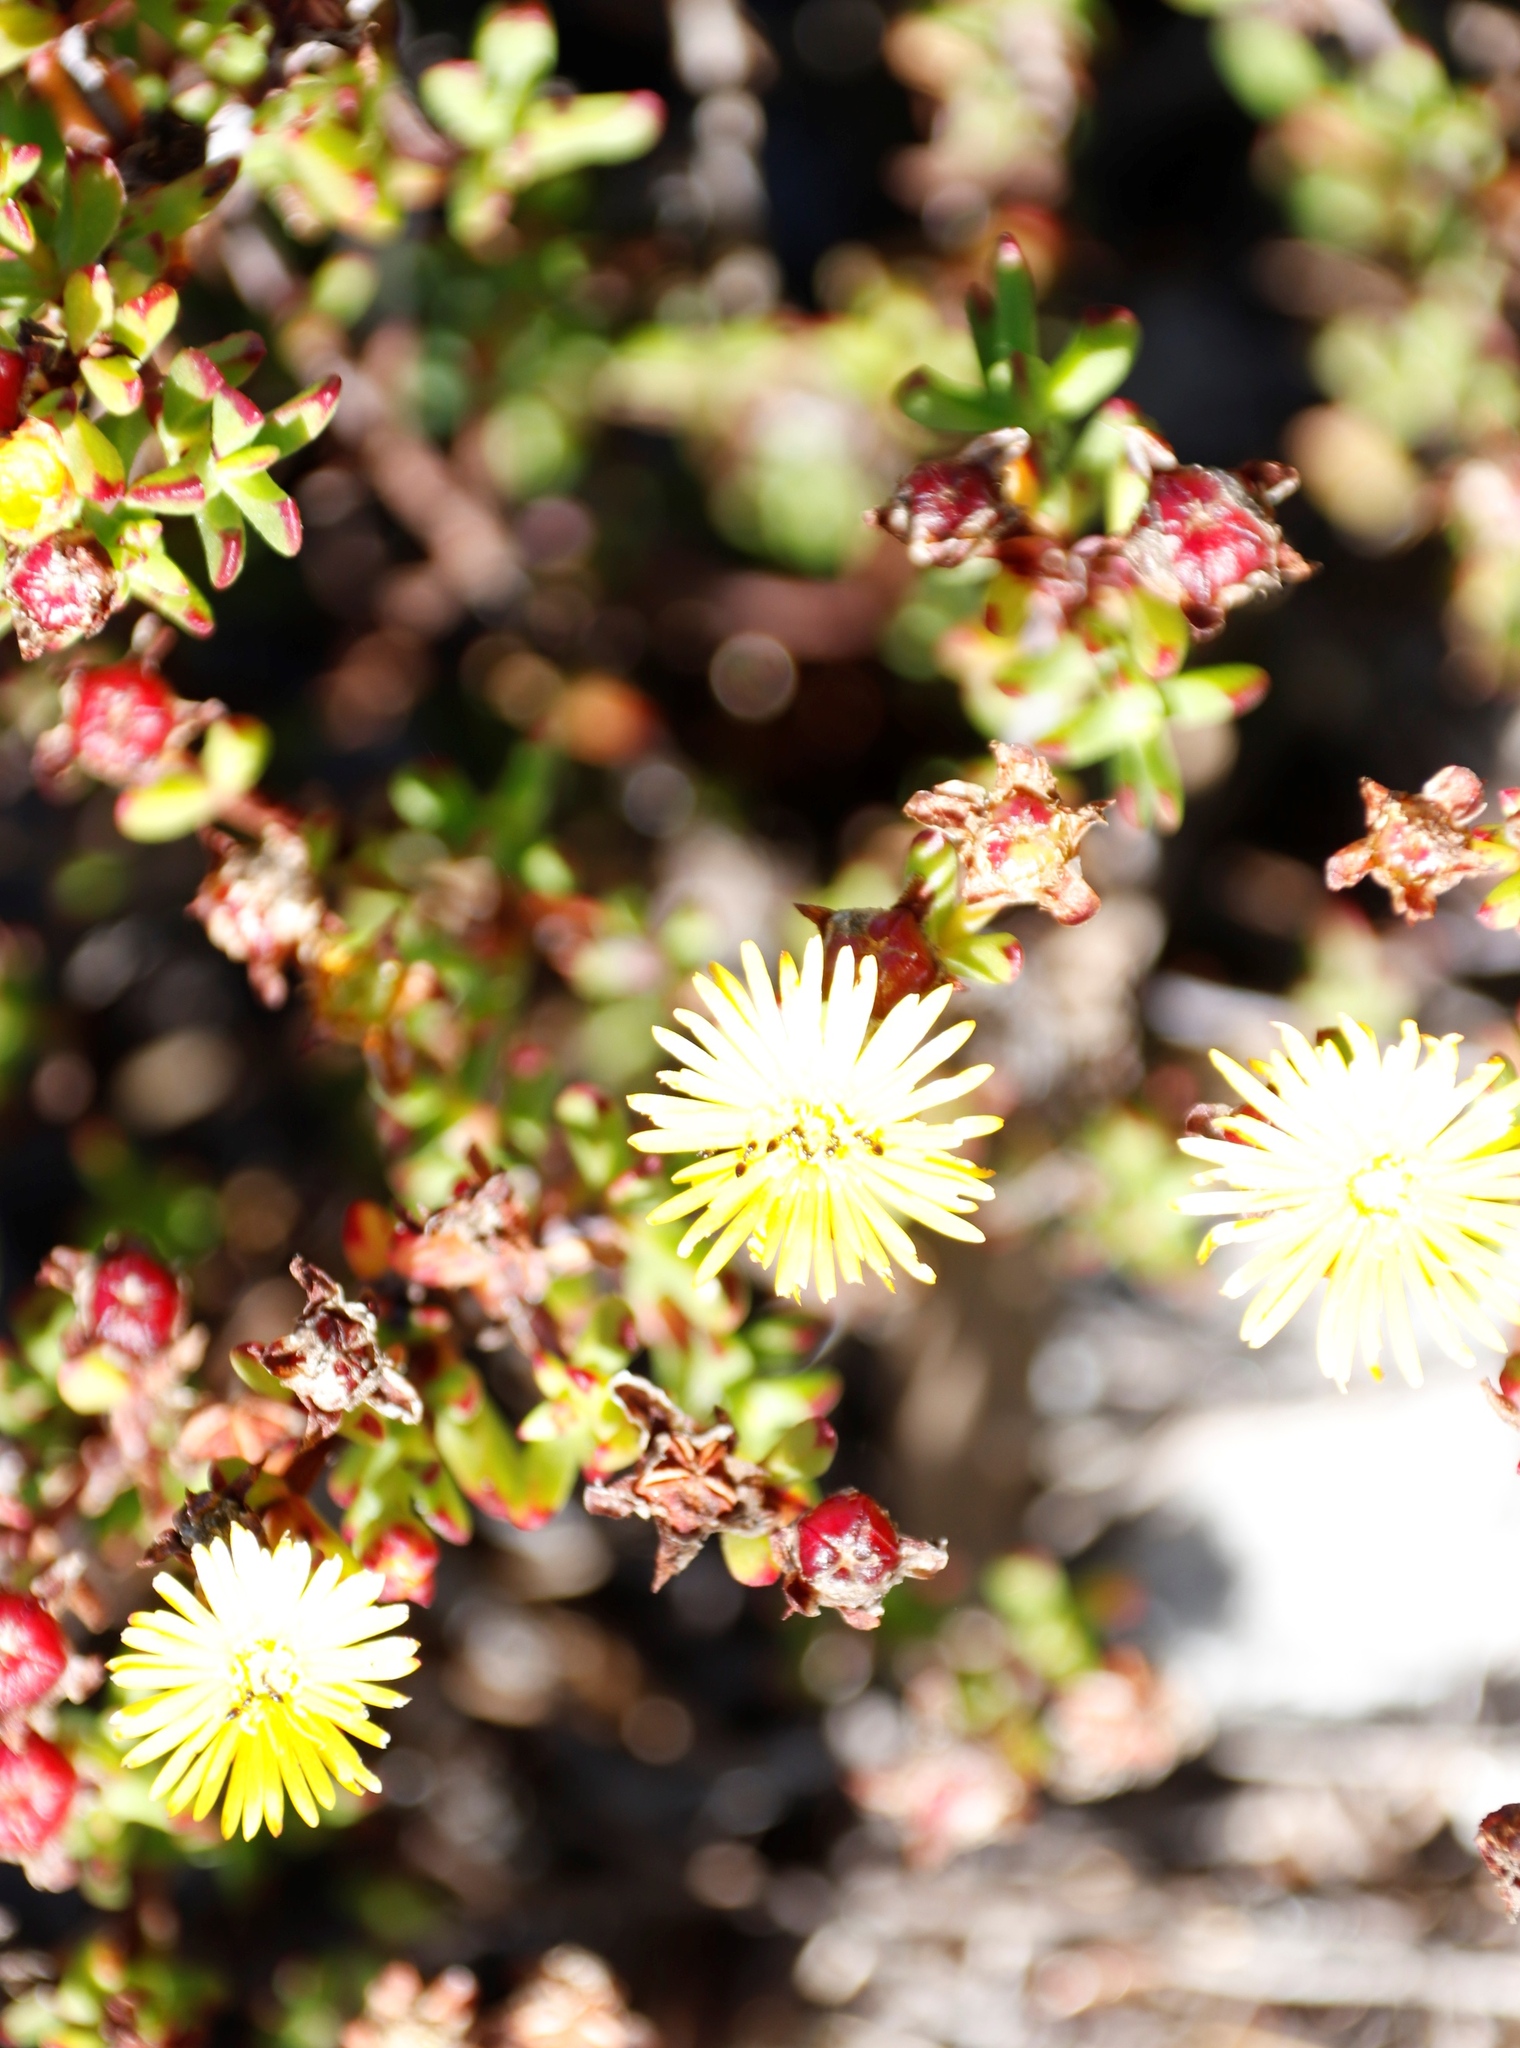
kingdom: Plantae
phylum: Tracheophyta
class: Magnoliopsida
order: Caryophyllales
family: Aizoaceae
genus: Lampranthus
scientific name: Lampranthus promontorii
